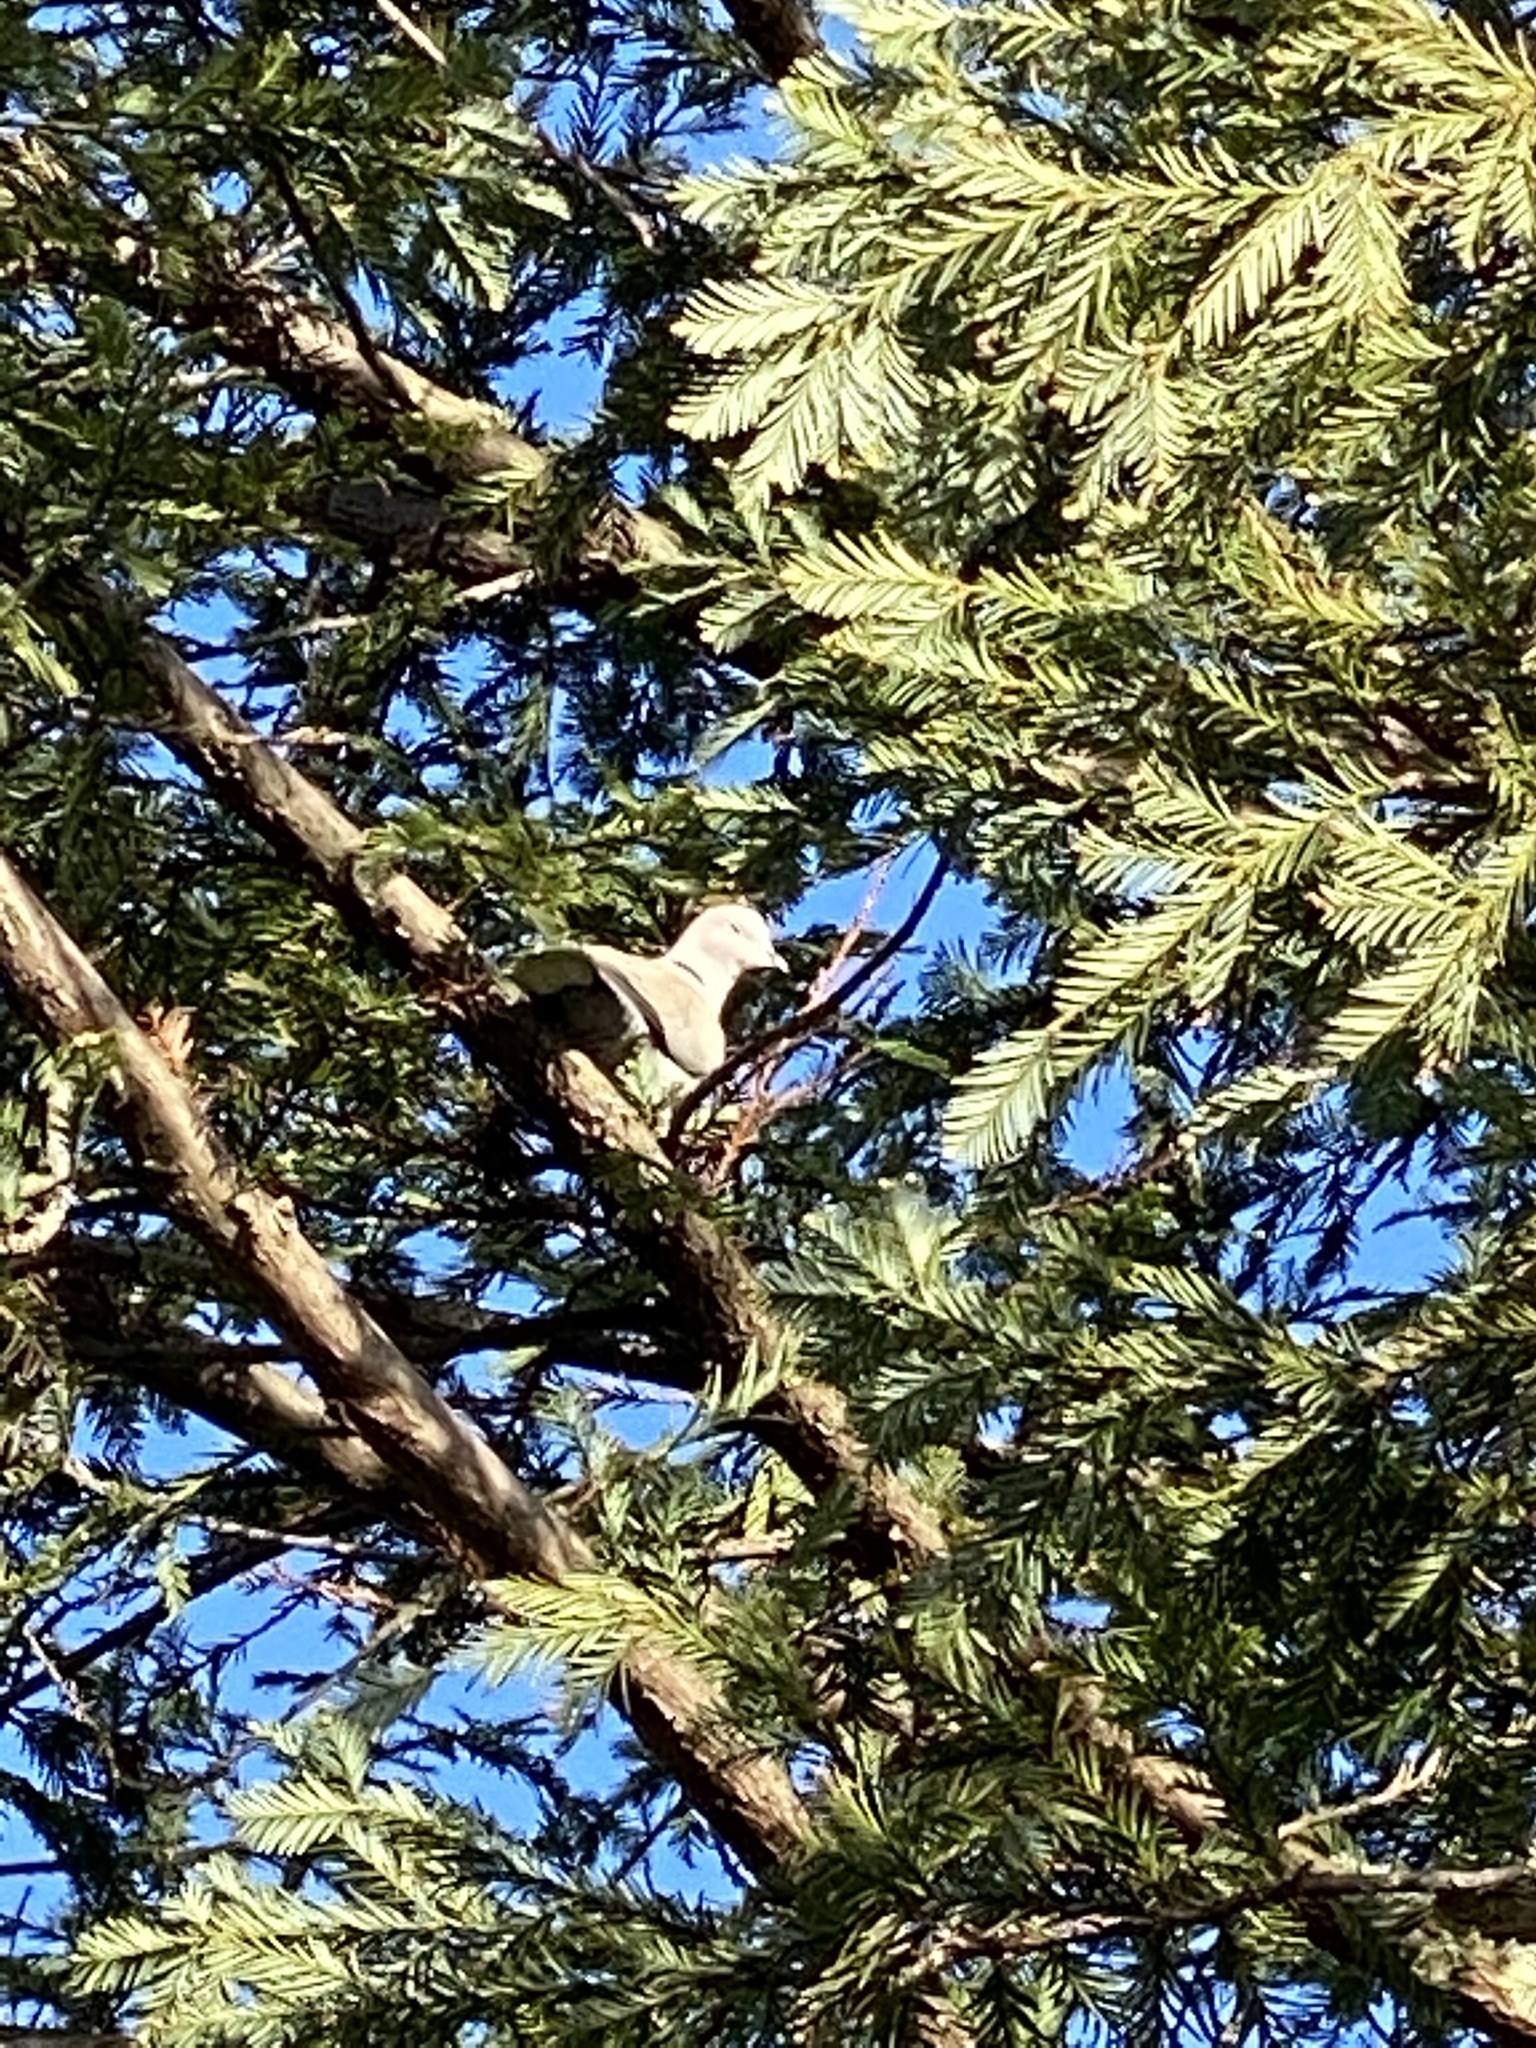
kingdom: Animalia
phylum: Chordata
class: Aves
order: Columbiformes
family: Columbidae
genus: Streptopelia
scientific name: Streptopelia decaocto
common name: Eurasian collared dove
